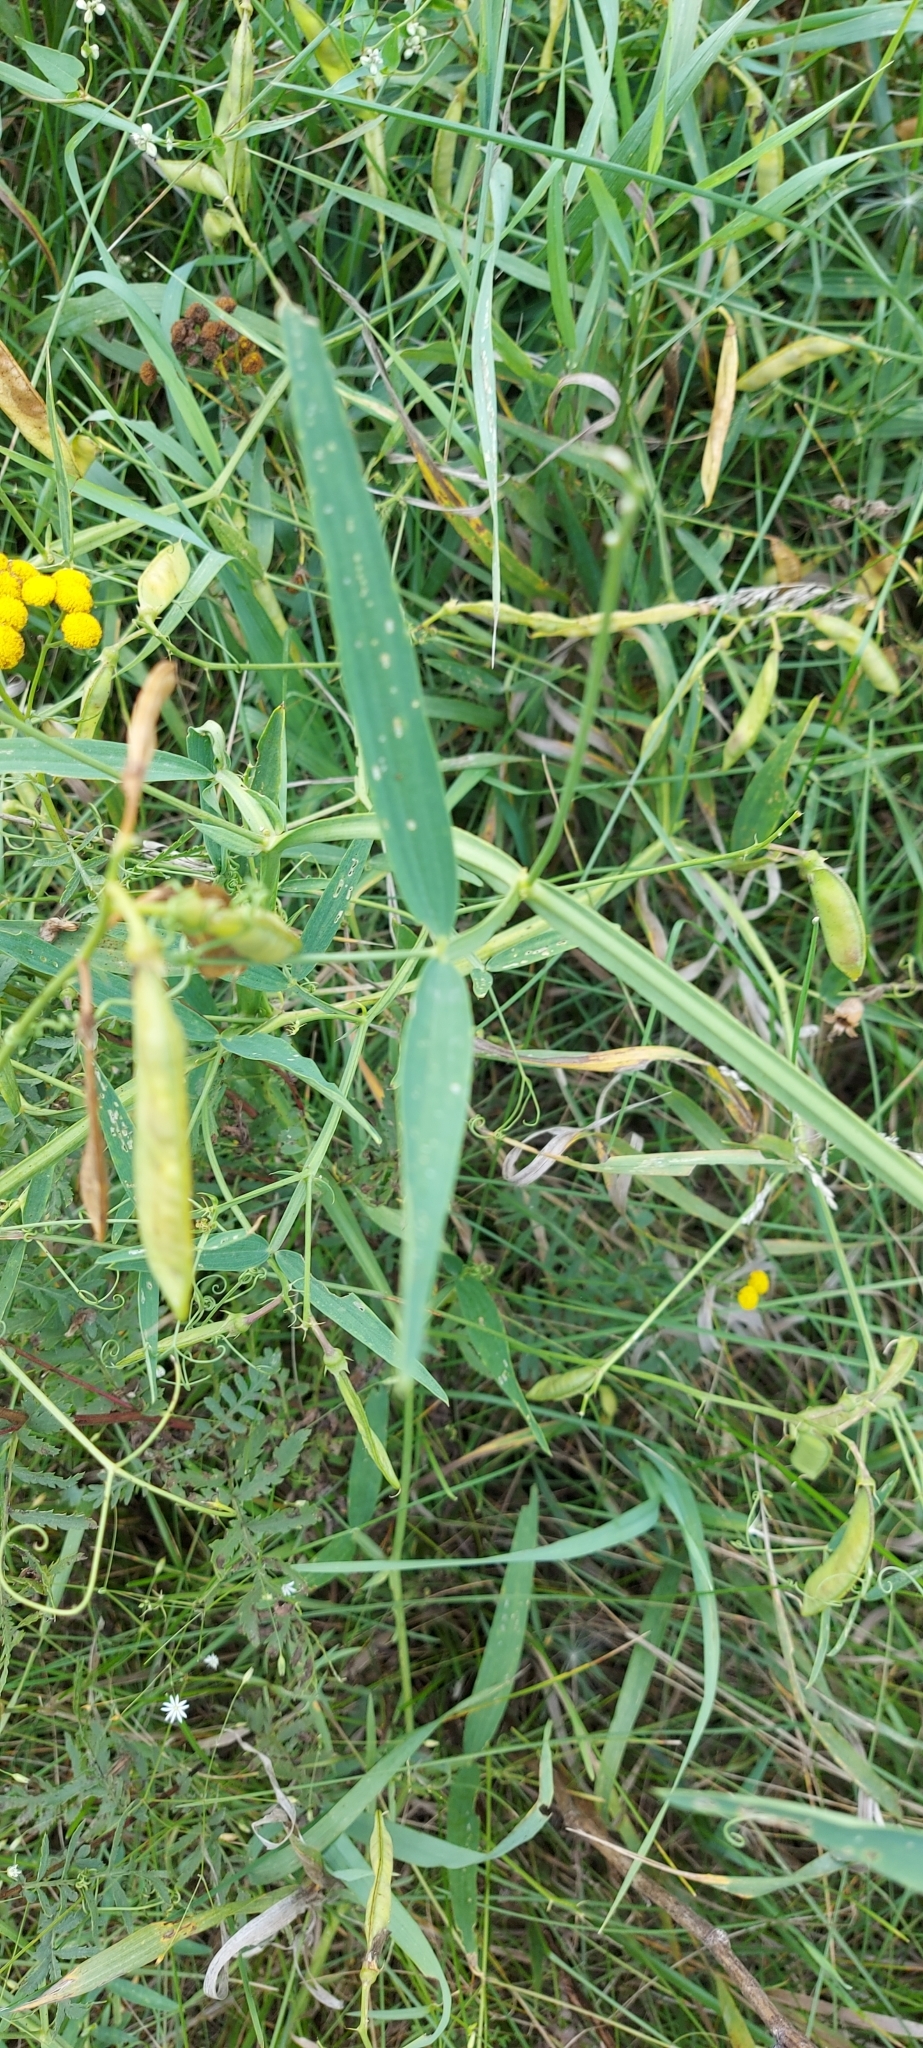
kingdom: Plantae
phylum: Tracheophyta
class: Magnoliopsida
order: Fabales
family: Fabaceae
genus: Lathyrus
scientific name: Lathyrus sylvestris
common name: Flat pea
